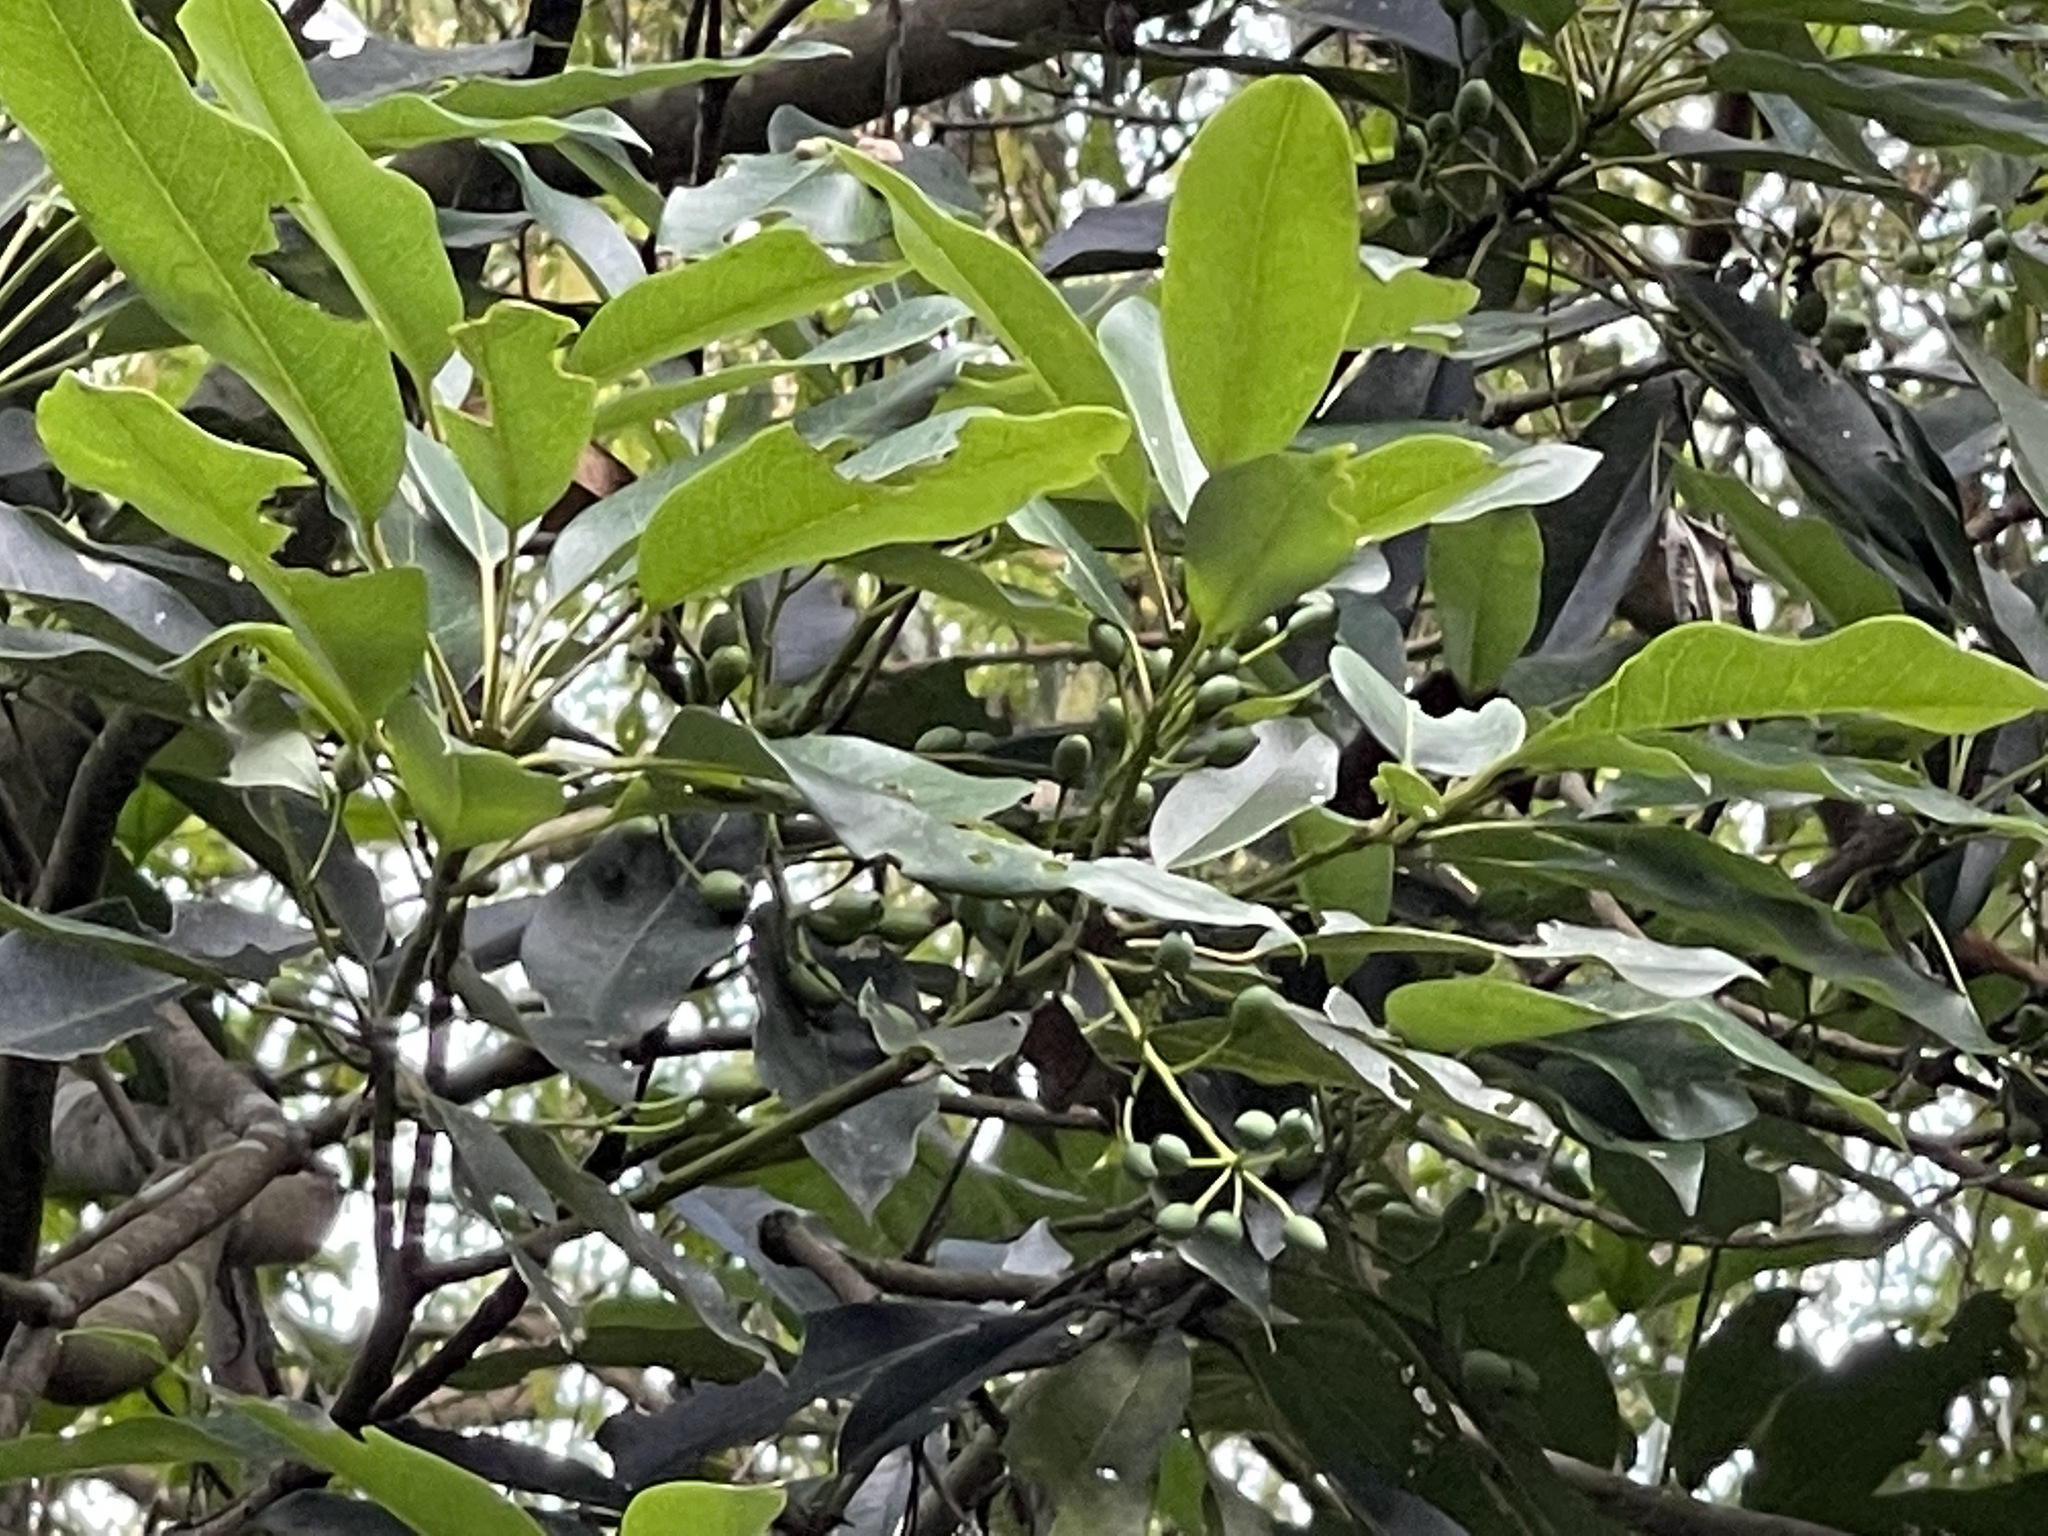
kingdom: Plantae
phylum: Tracheophyta
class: Magnoliopsida
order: Saxifragales
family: Daphniphyllaceae
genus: Daphniphyllum
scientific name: Daphniphyllum pentandrum
